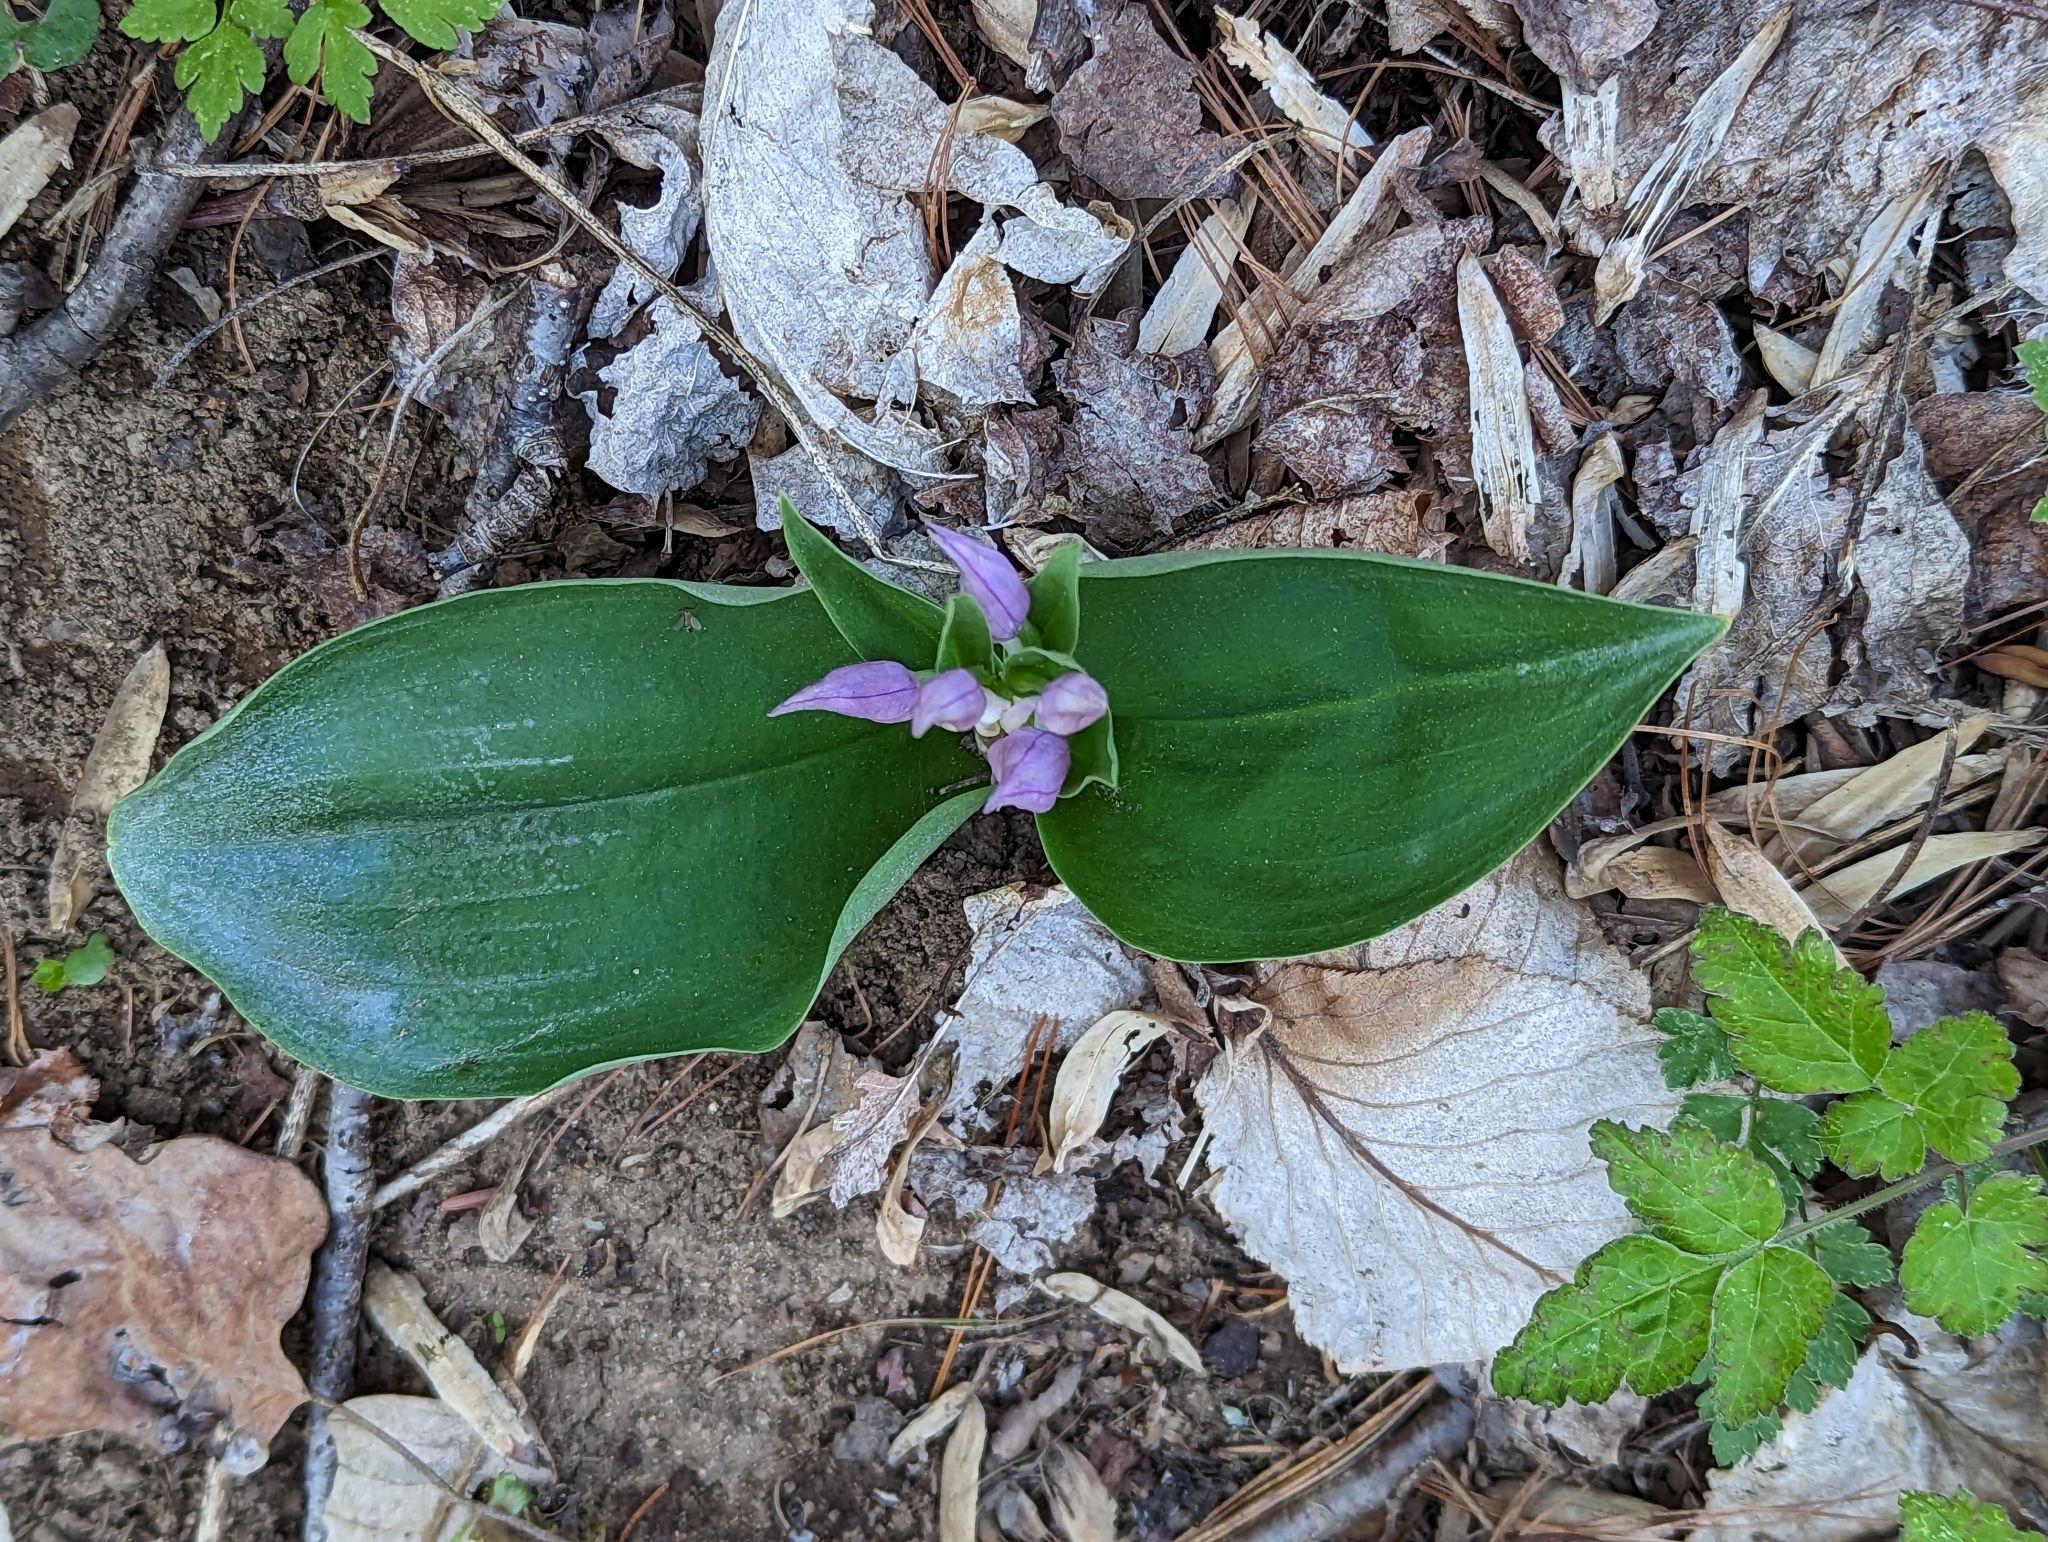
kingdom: Plantae
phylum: Tracheophyta
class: Liliopsida
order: Asparagales
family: Orchidaceae
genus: Galearis
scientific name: Galearis spectabilis
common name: Purple-hooded orchis
